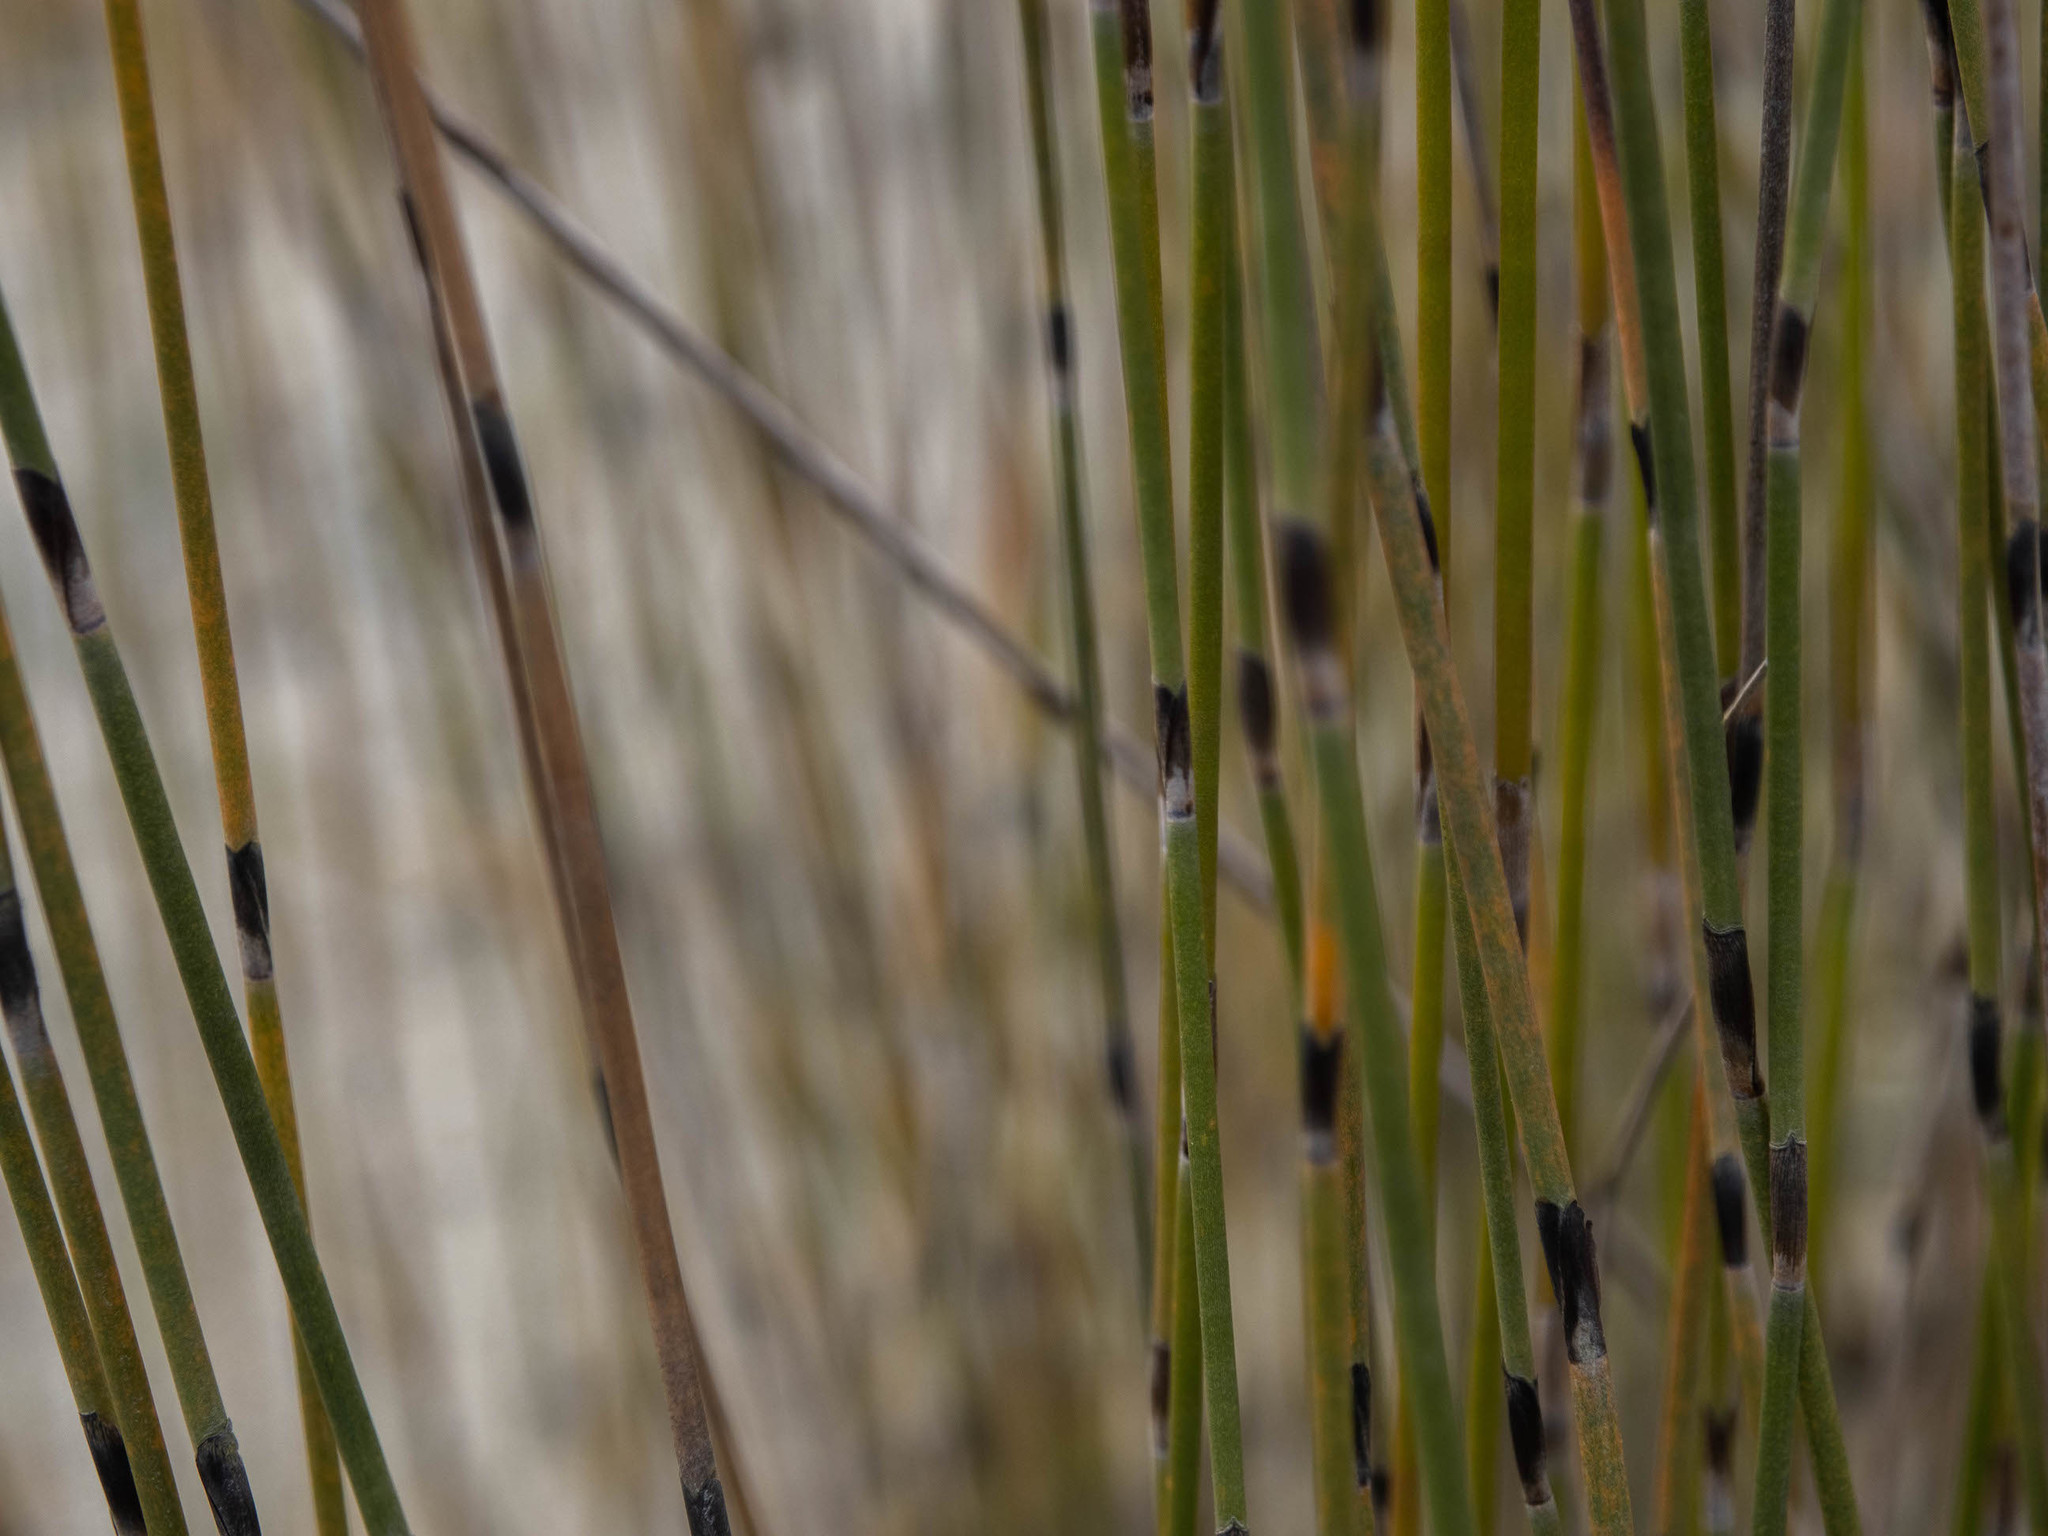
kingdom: Plantae
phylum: Tracheophyta
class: Liliopsida
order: Poales
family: Restionaceae
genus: Apodasmia
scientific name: Apodasmia similis
